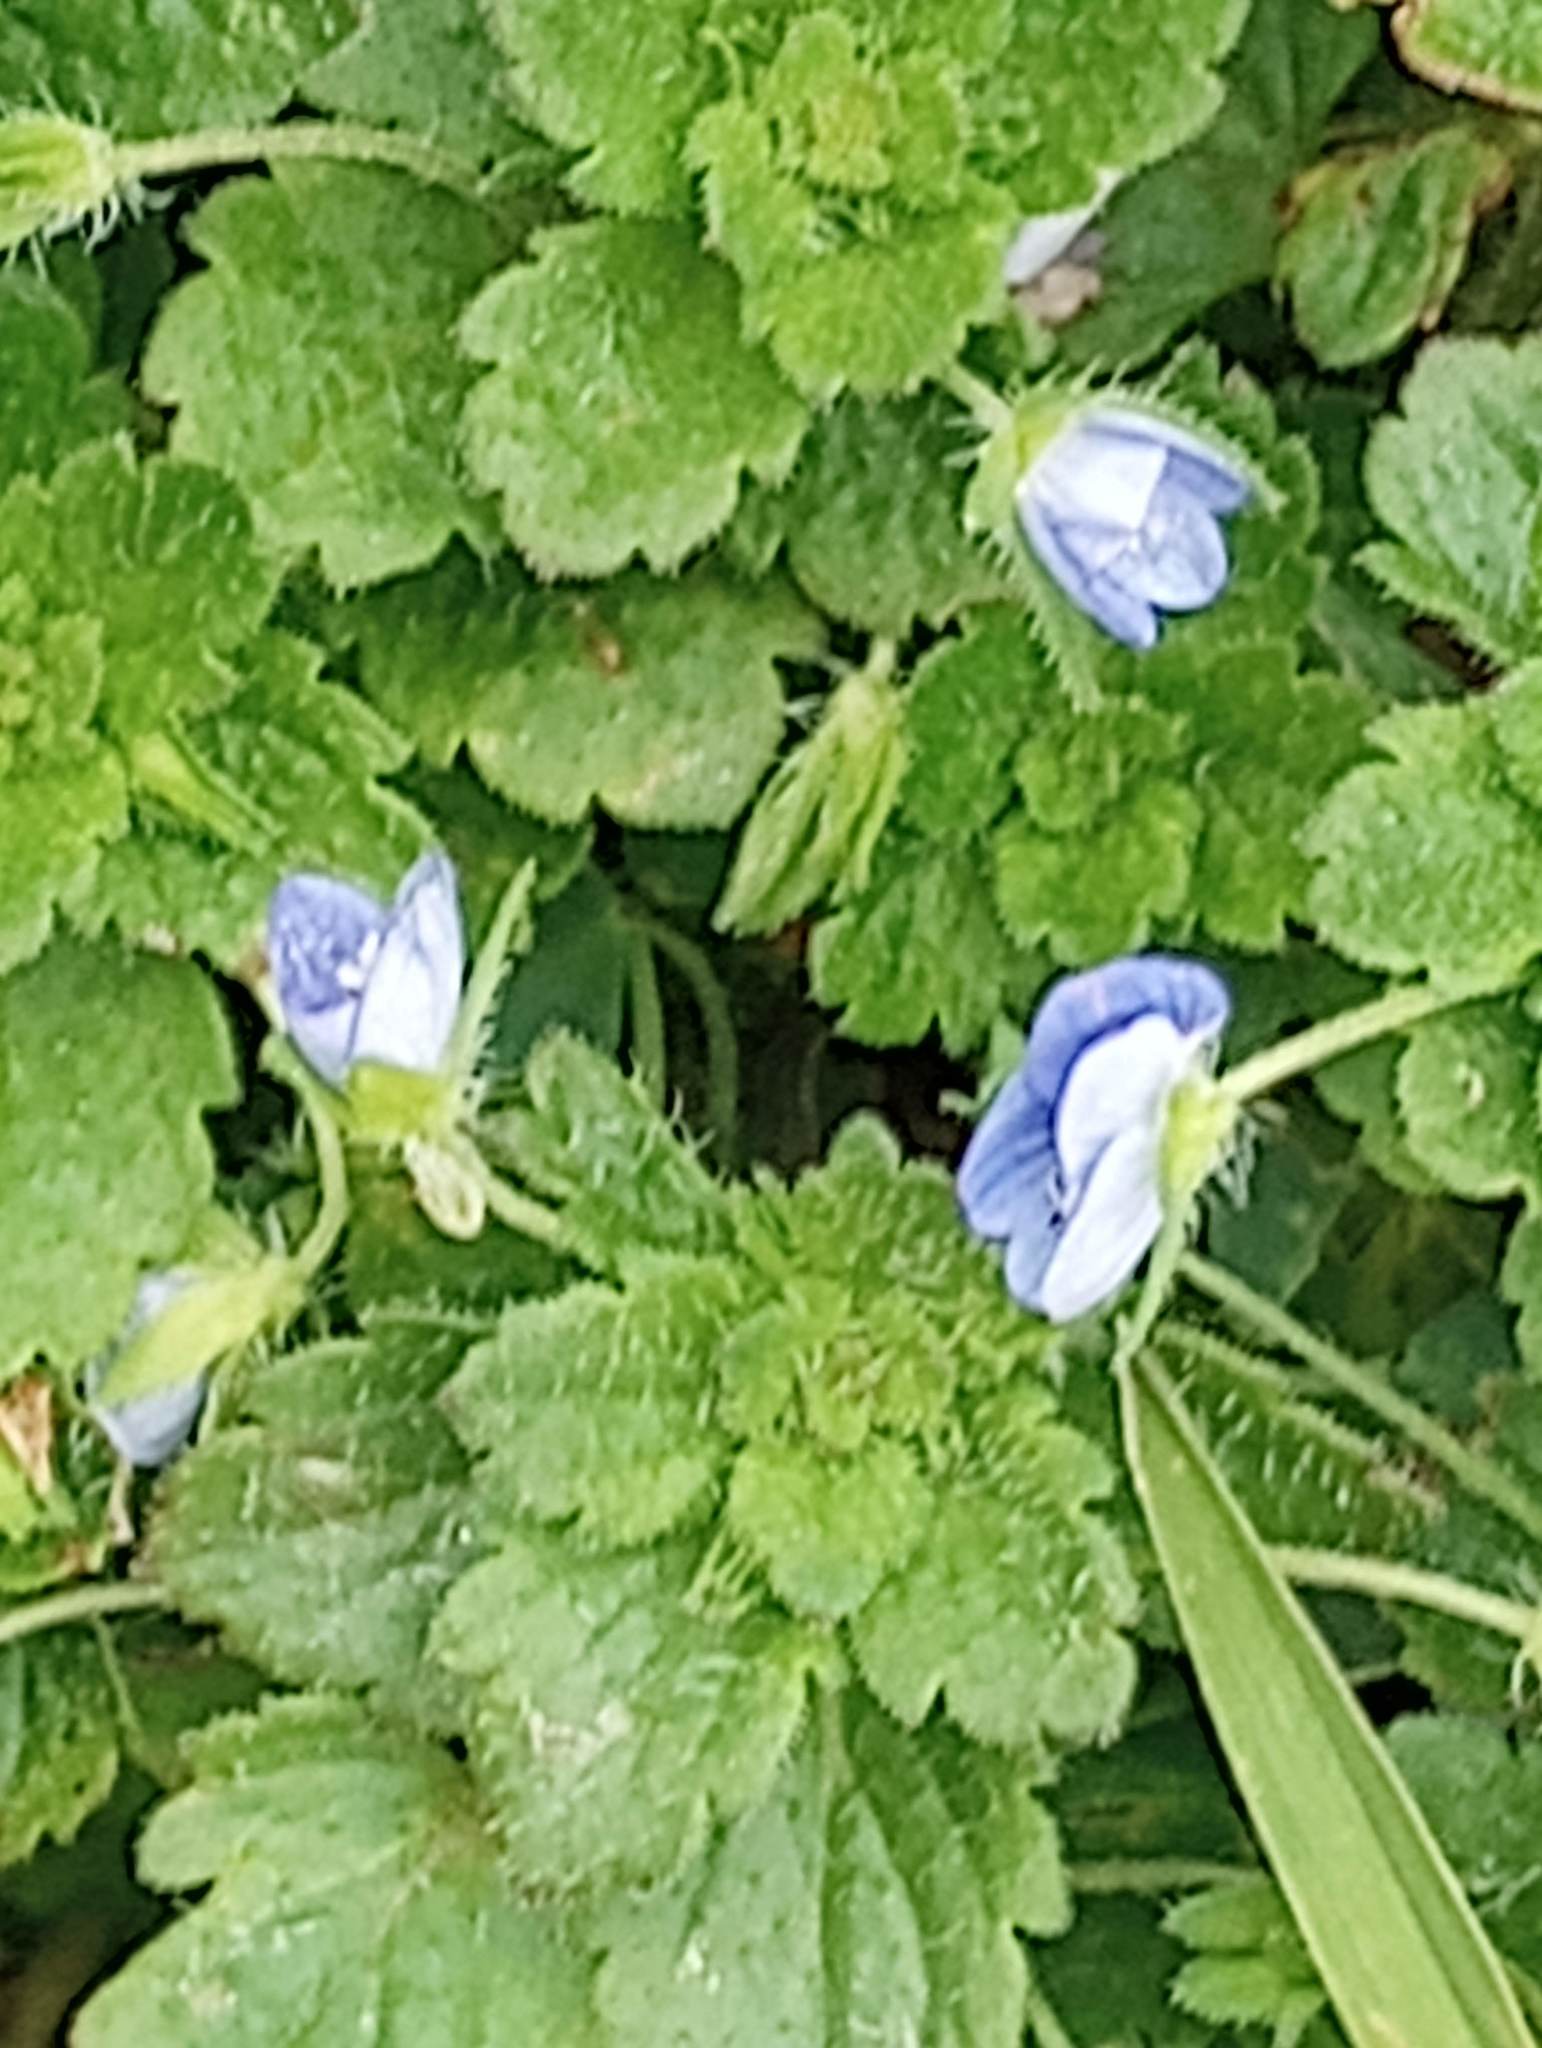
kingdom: Plantae
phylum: Tracheophyta
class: Magnoliopsida
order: Lamiales
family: Plantaginaceae
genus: Veronica
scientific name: Veronica persica
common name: Common field-speedwell
